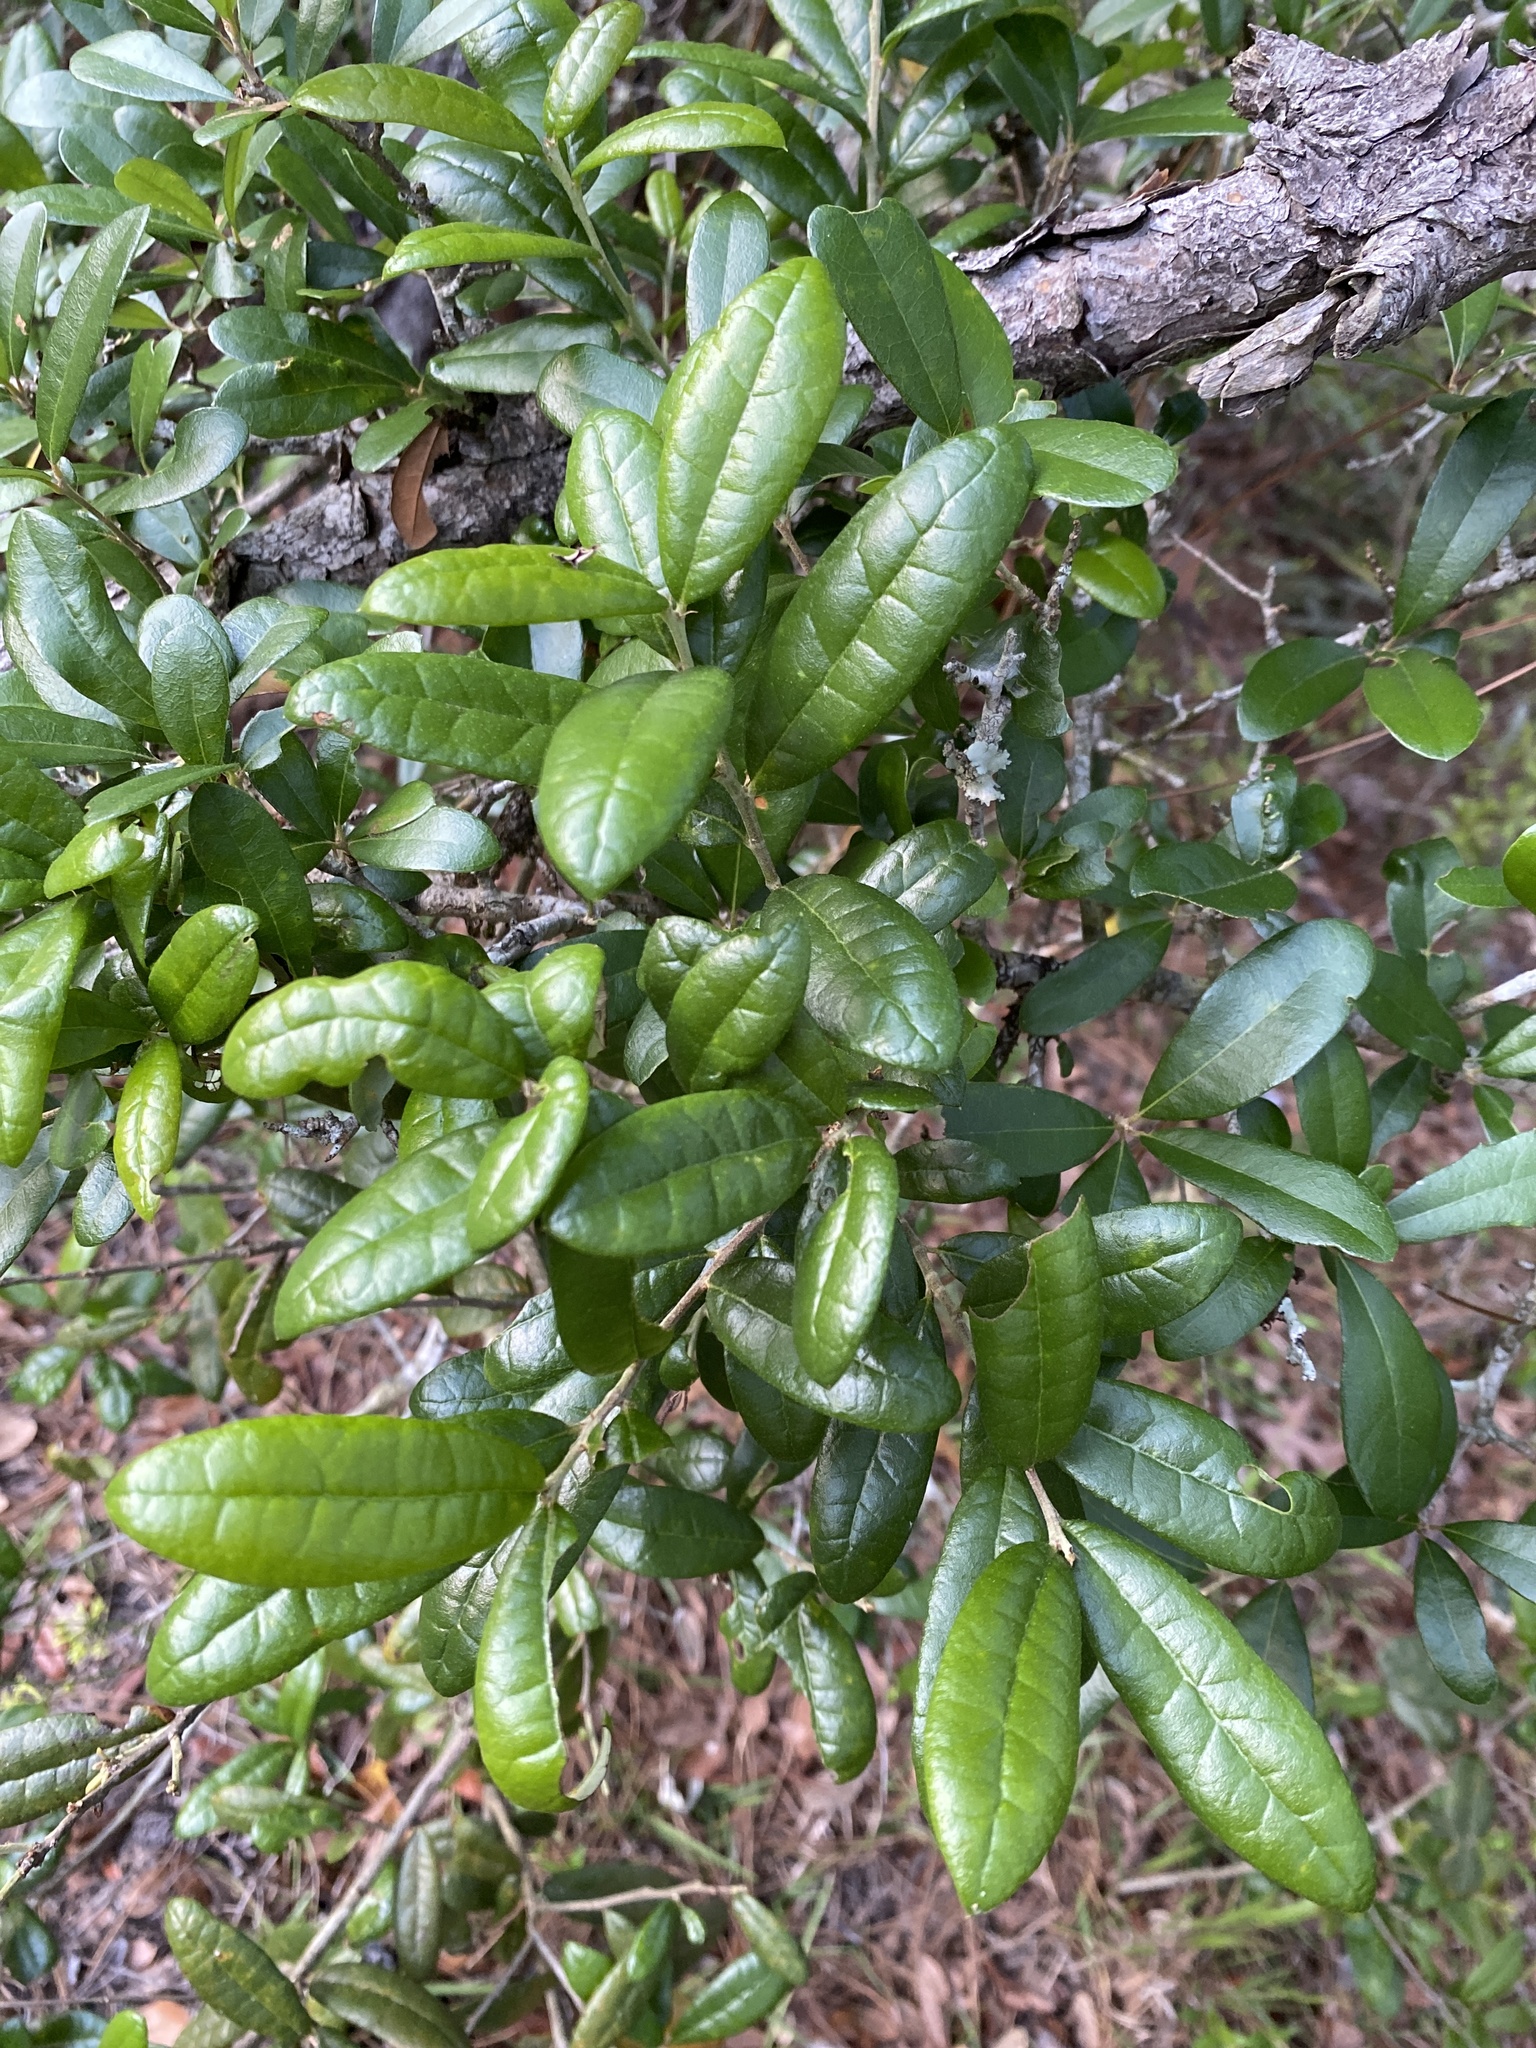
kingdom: Plantae
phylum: Tracheophyta
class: Magnoliopsida
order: Fagales
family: Fagaceae
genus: Quercus
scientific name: Quercus geminata
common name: Sand live oak
